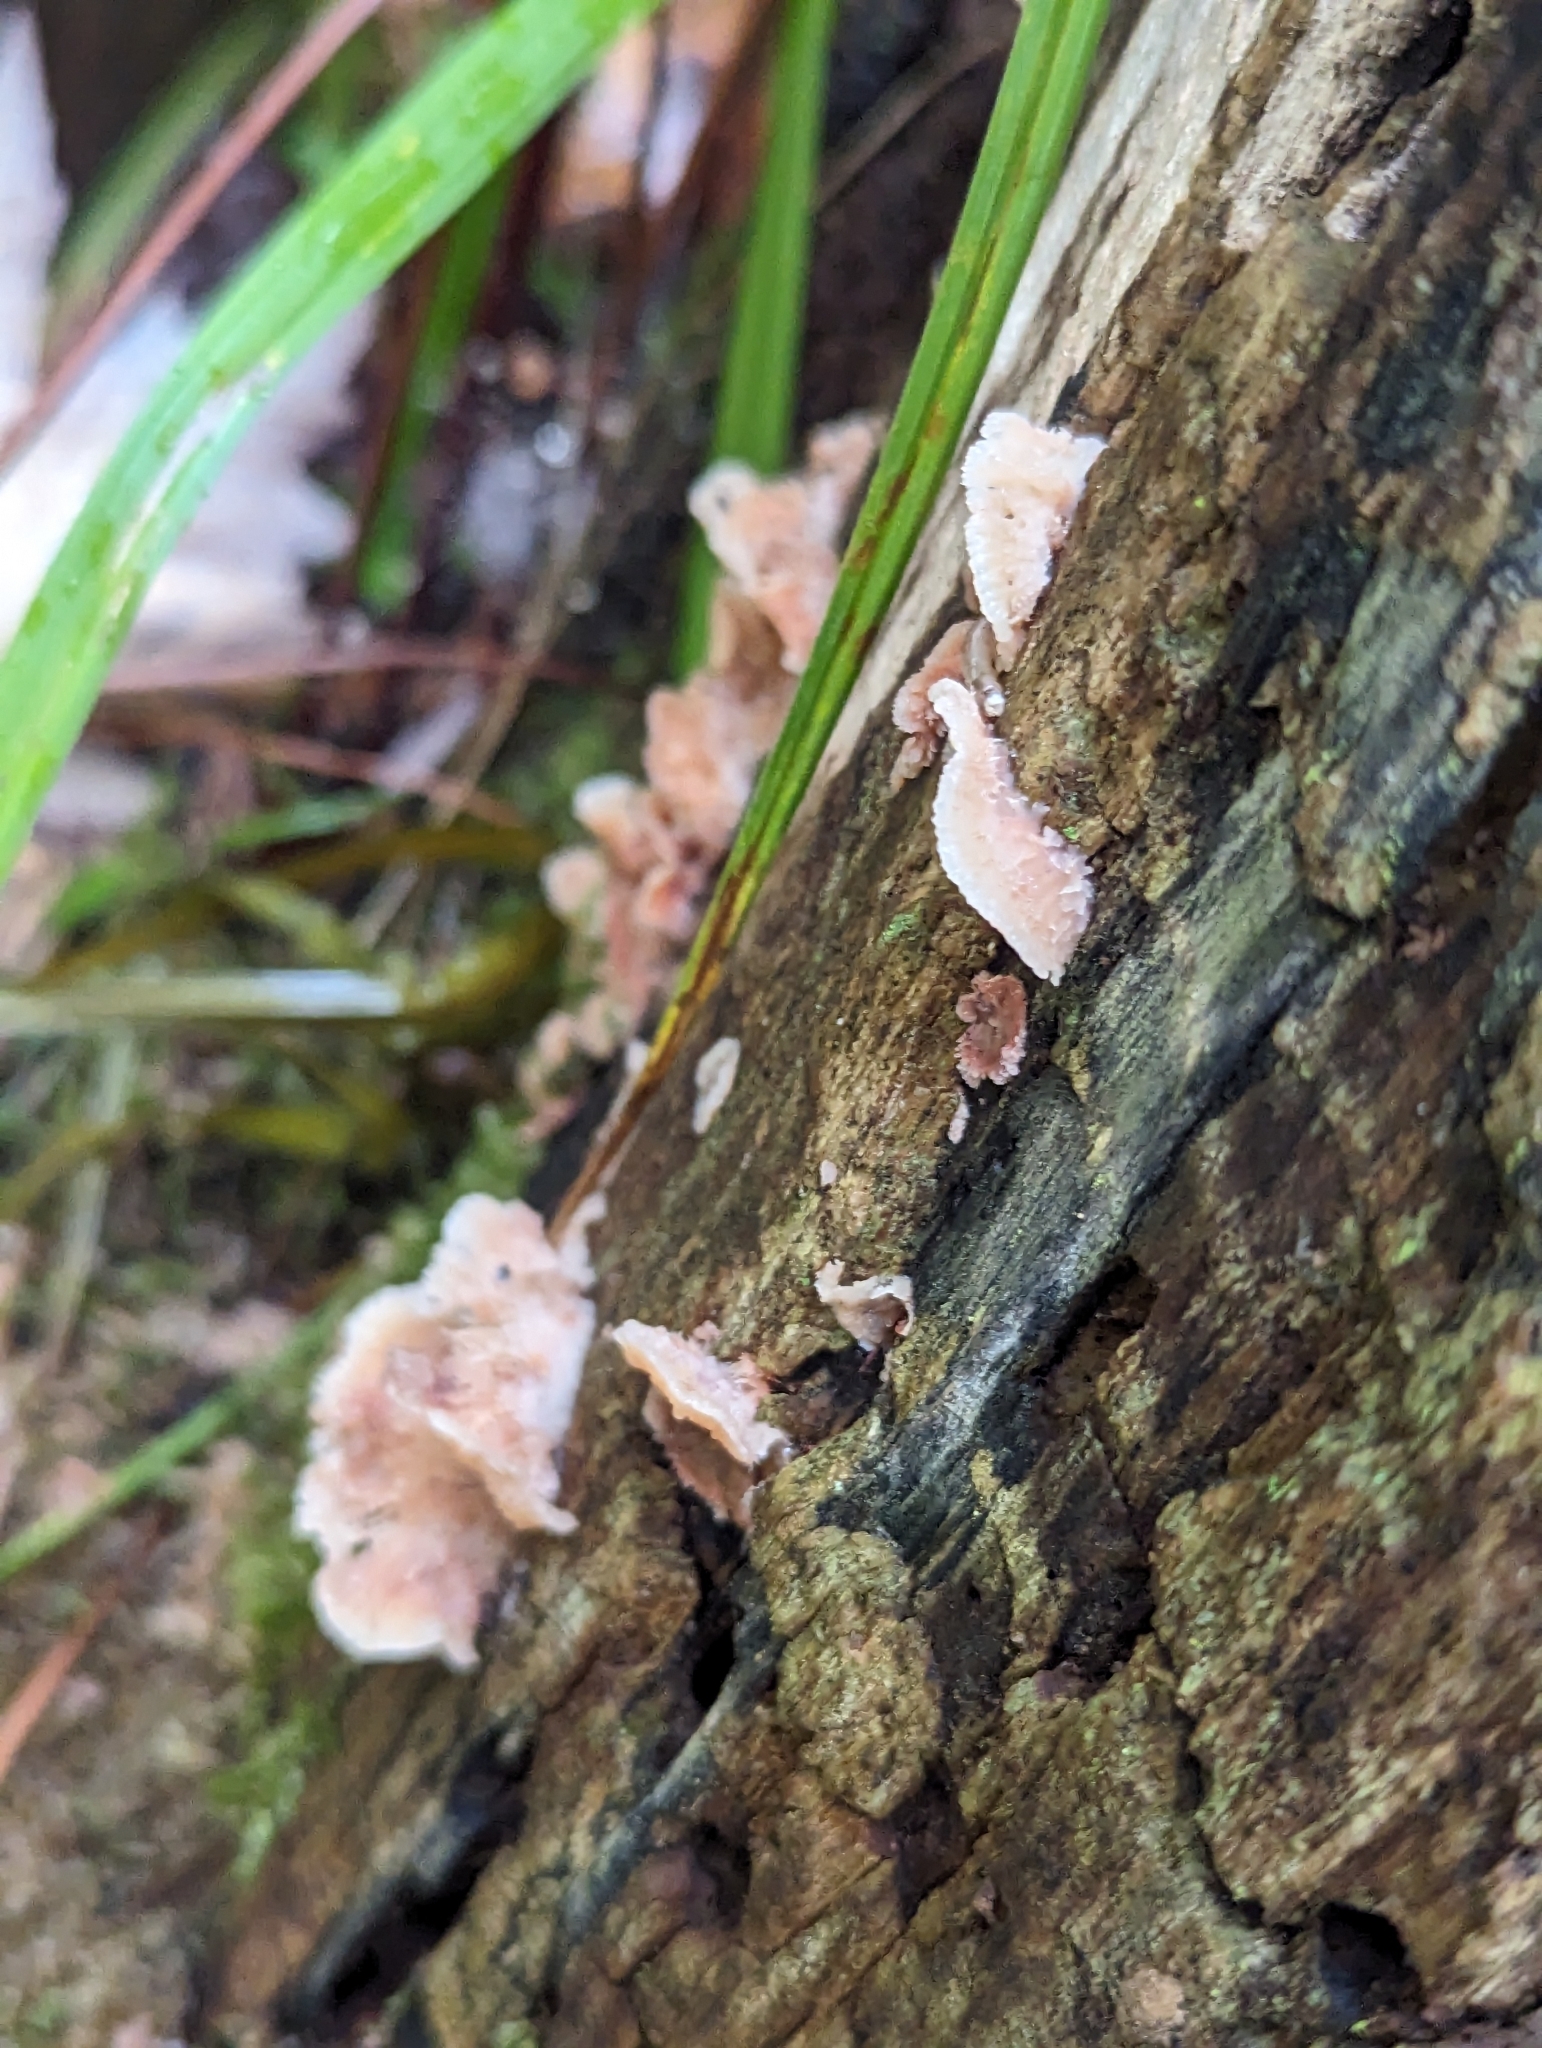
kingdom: Fungi
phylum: Basidiomycota
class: Agaricomycetes
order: Polyporales
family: Meruliaceae
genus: Phlebia
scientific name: Phlebia tremellosa
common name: Jelly rot
